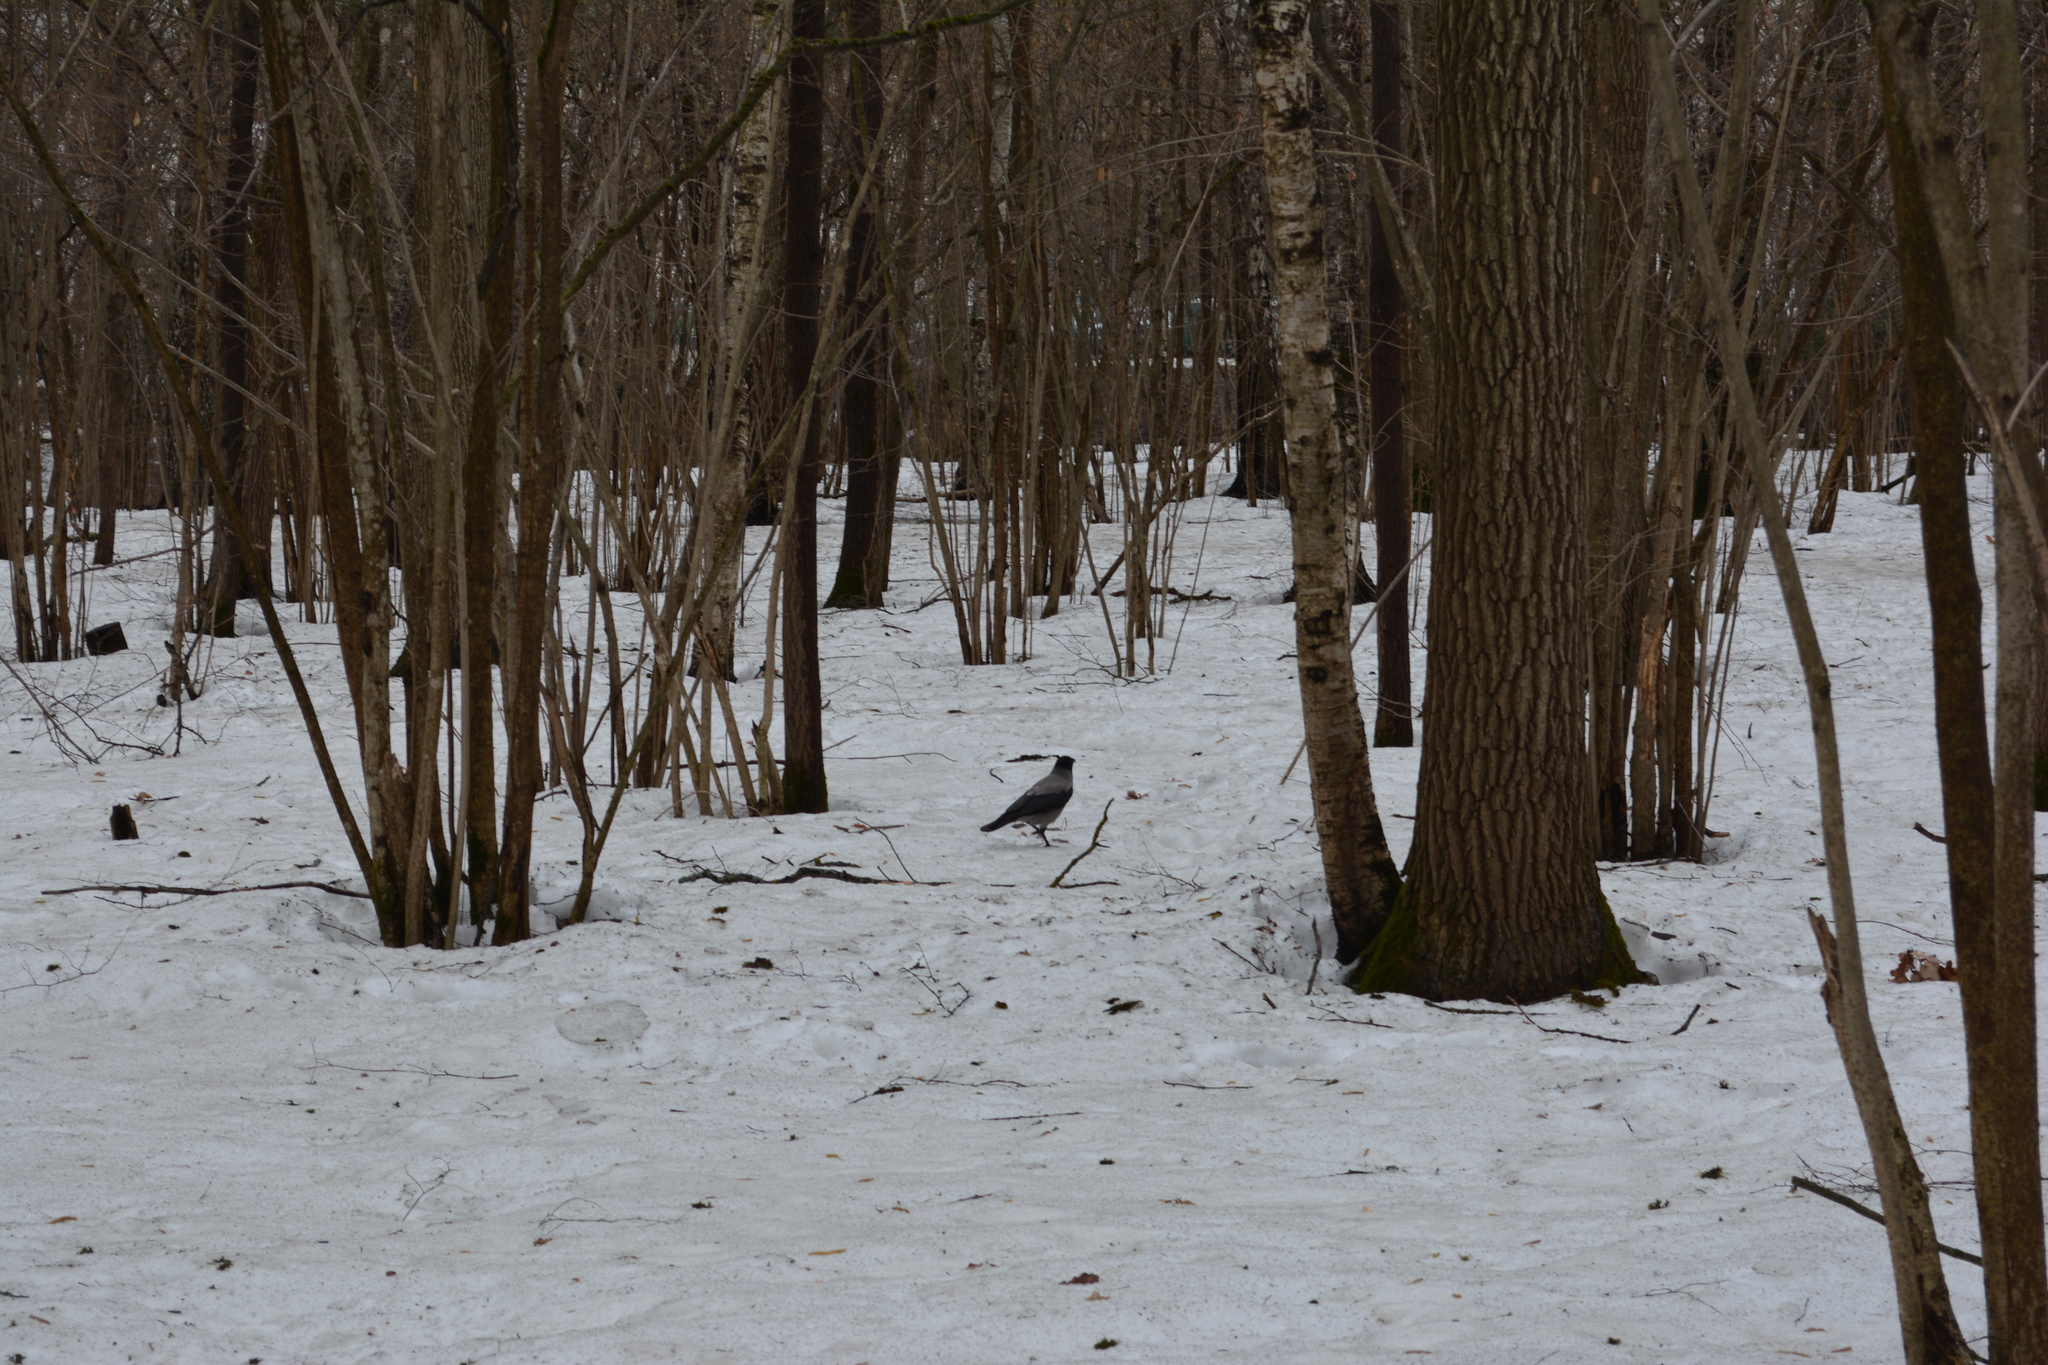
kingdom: Animalia
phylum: Chordata
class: Aves
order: Passeriformes
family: Corvidae
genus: Corvus
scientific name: Corvus cornix
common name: Hooded crow
